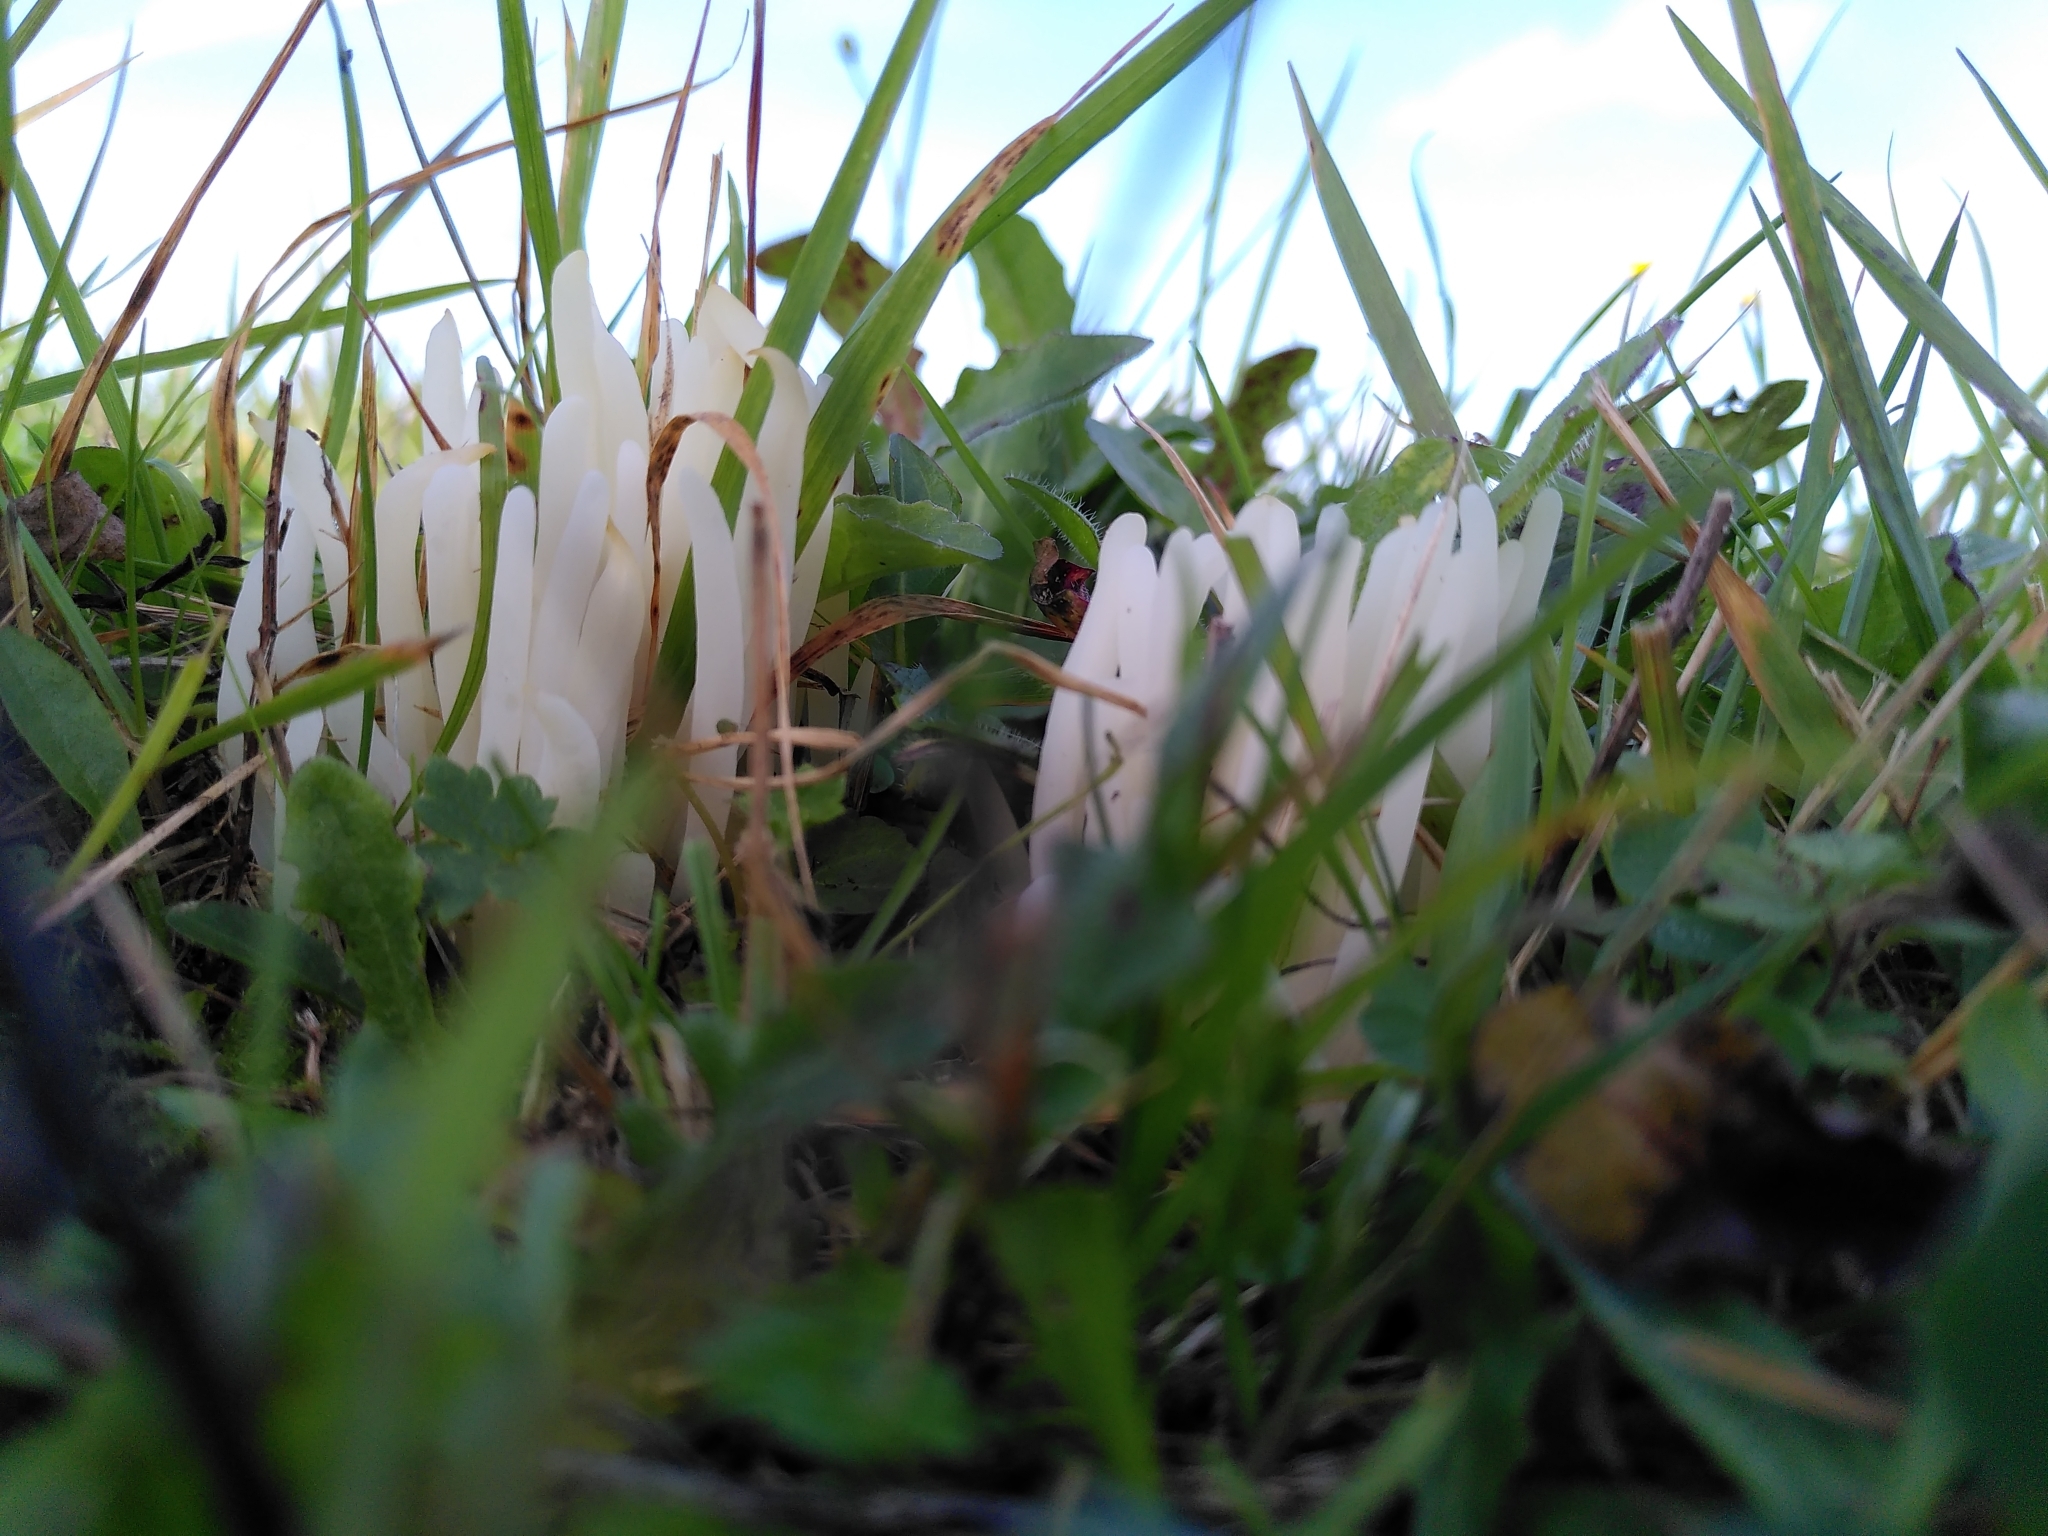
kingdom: Fungi
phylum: Basidiomycota
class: Agaricomycetes
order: Agaricales
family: Clavariaceae
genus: Clavaria
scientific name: Clavaria fragilis
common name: White spindles
